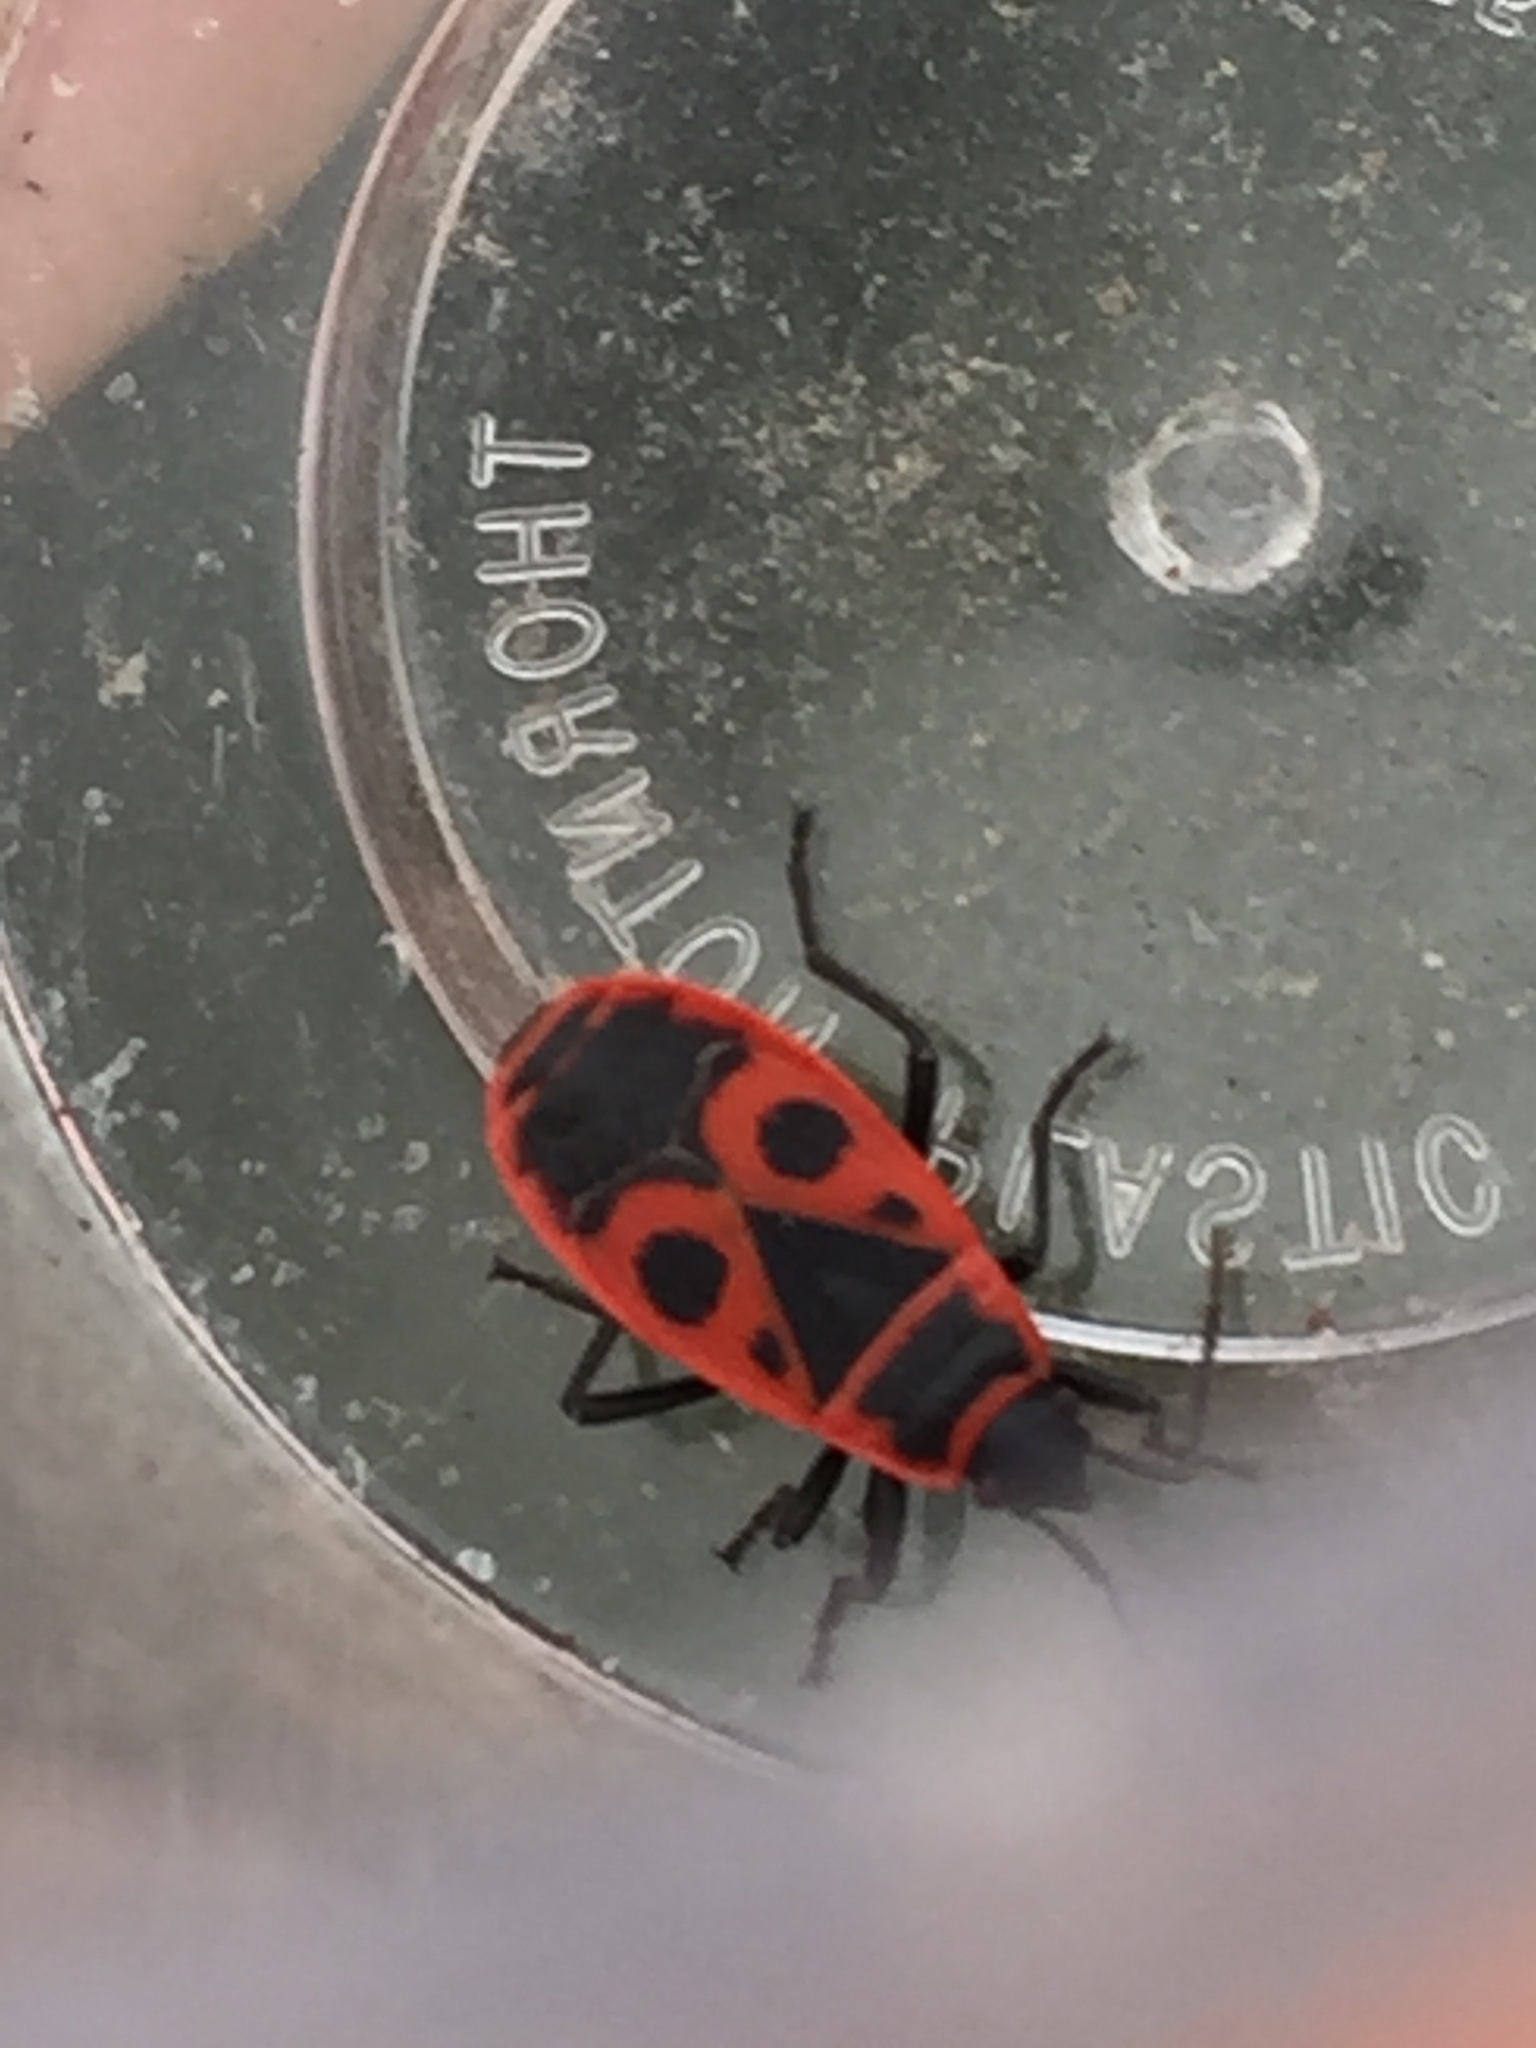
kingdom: Animalia
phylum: Arthropoda
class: Insecta
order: Hemiptera
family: Pyrrhocoridae
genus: Pyrrhocoris
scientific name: Pyrrhocoris apterus
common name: Firebug
